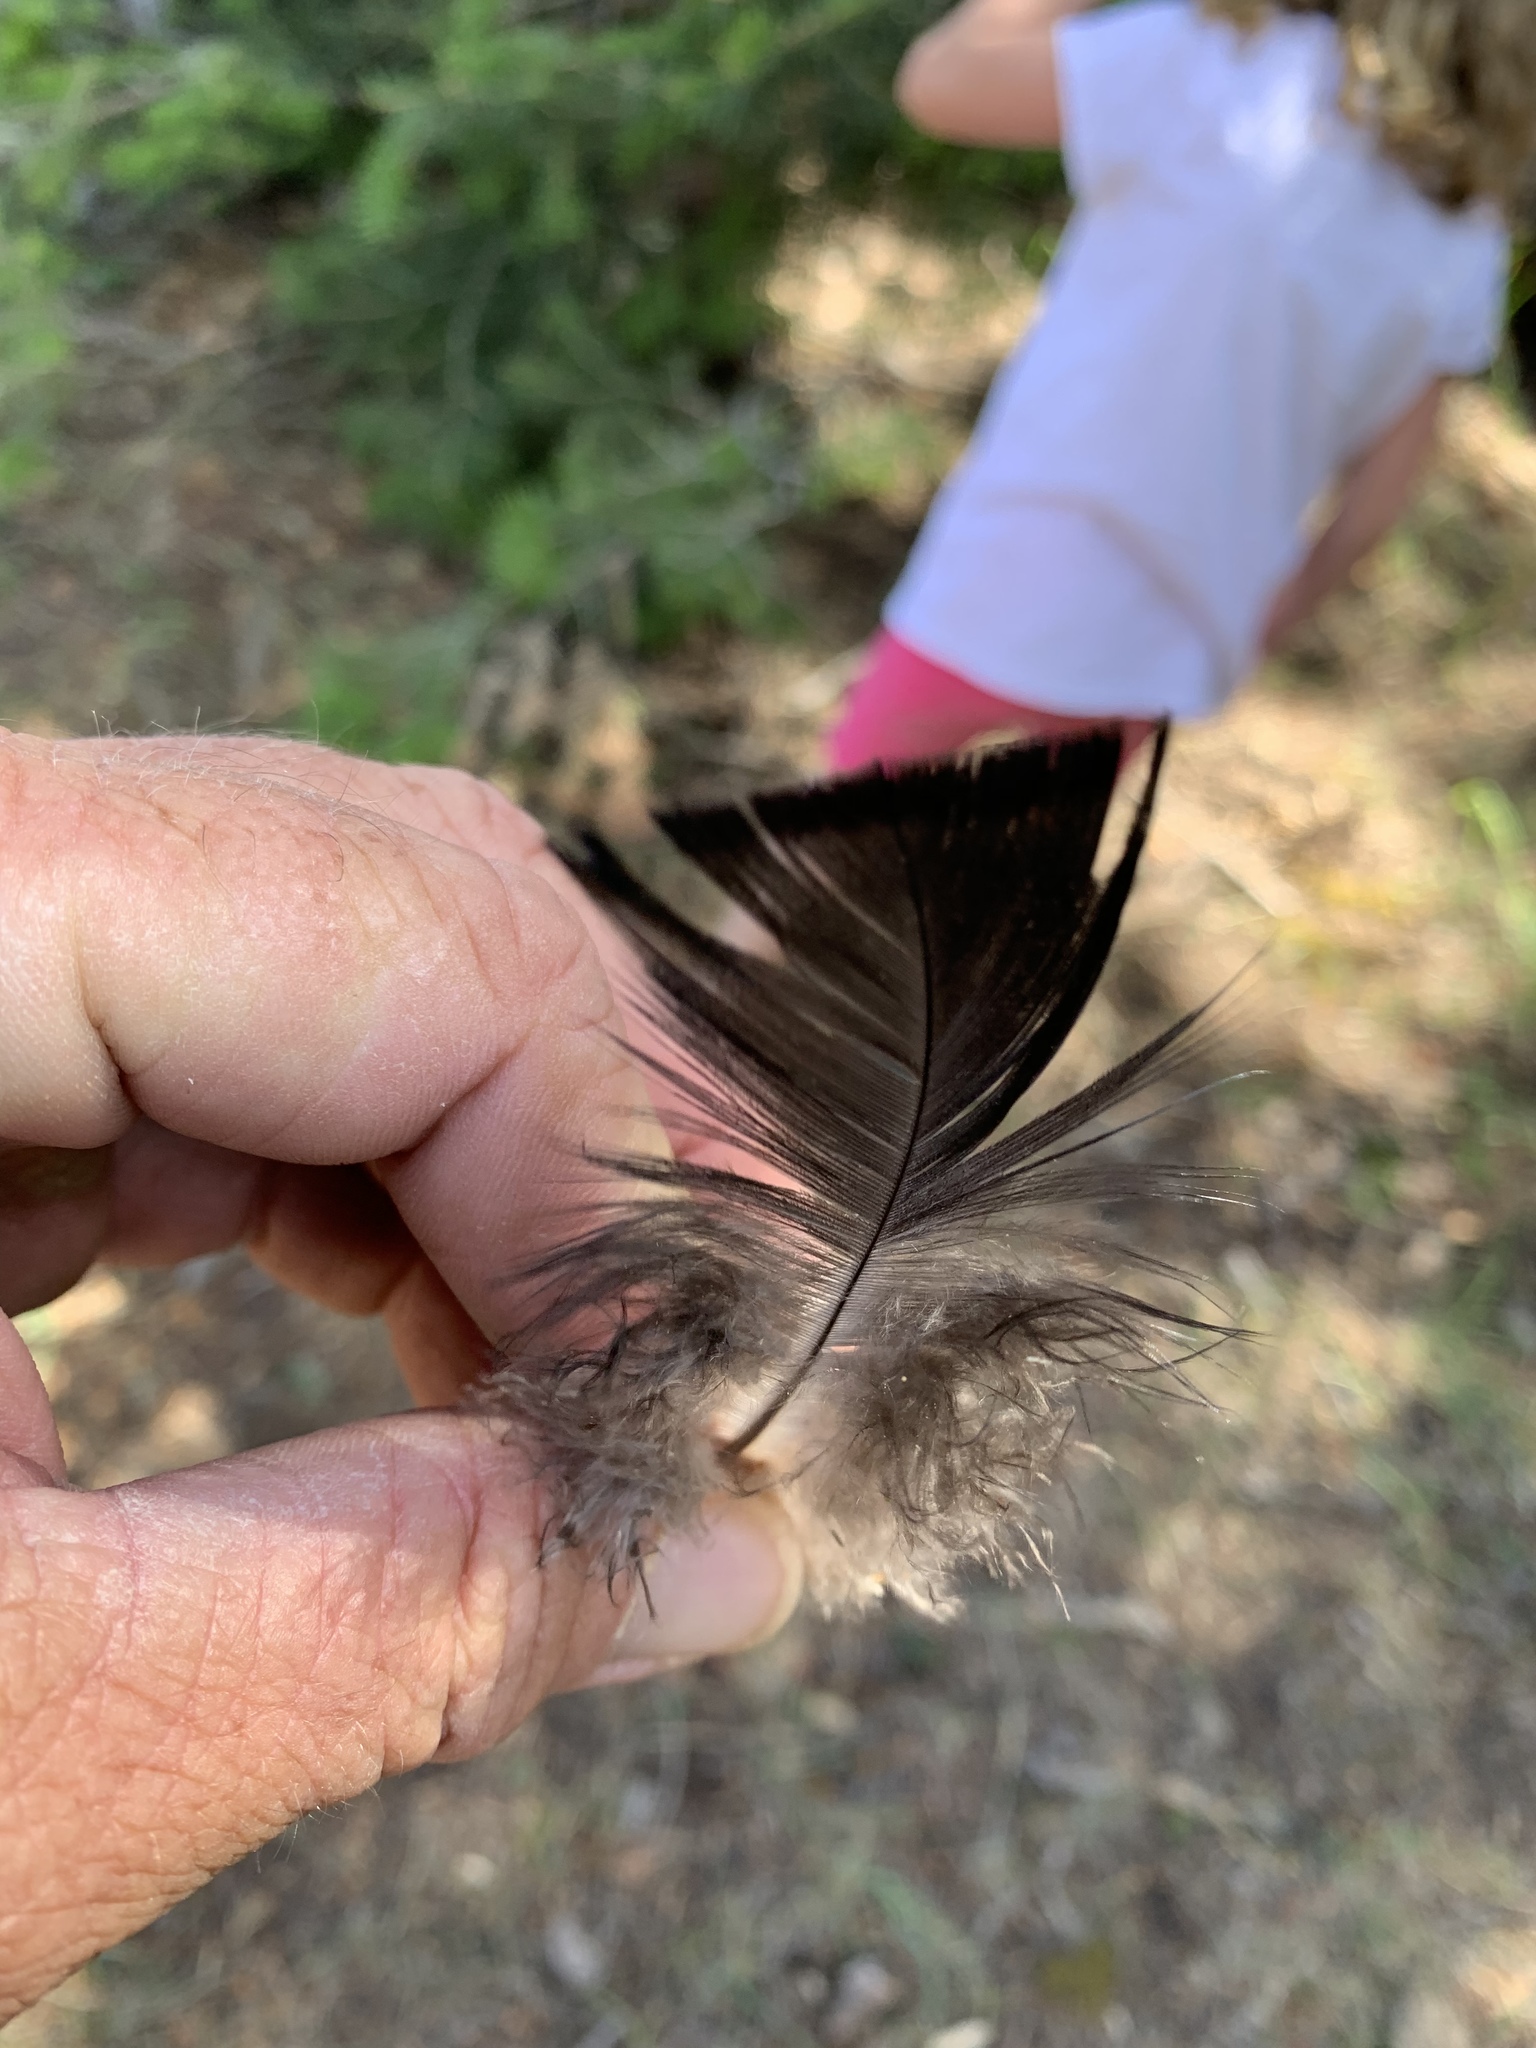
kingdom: Animalia
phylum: Chordata
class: Aves
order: Galliformes
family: Phasianidae
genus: Meleagris
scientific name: Meleagris gallopavo
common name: Wild turkey
